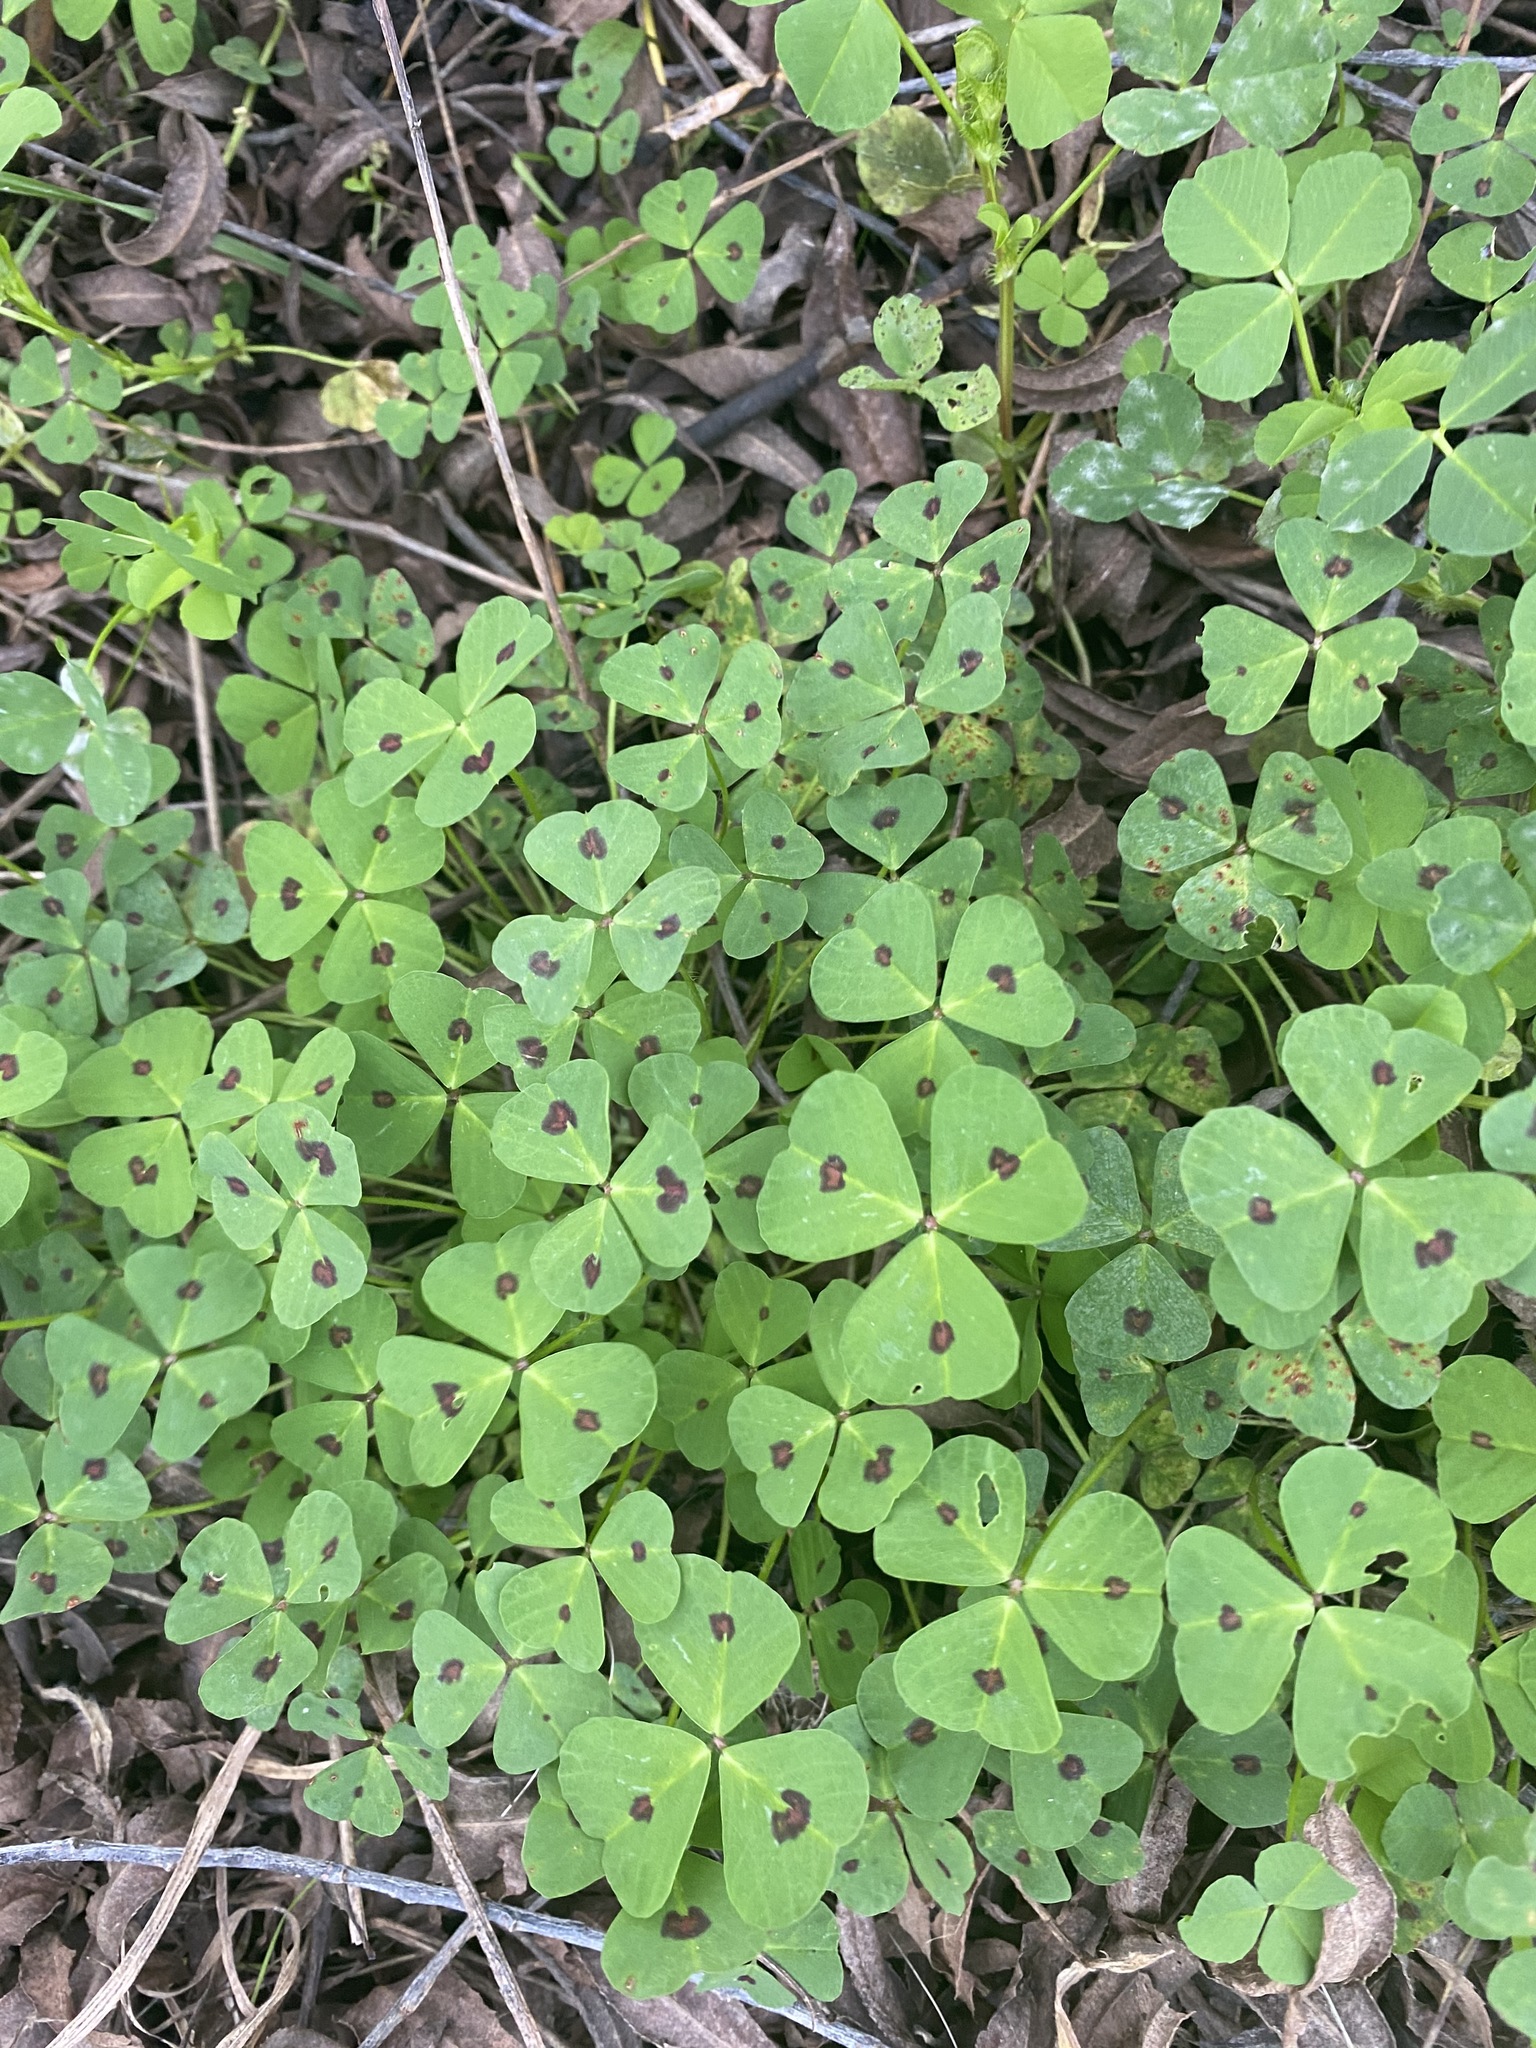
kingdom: Plantae
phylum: Tracheophyta
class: Magnoliopsida
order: Fabales
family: Fabaceae
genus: Medicago
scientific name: Medicago arabica
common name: Spotted medick
